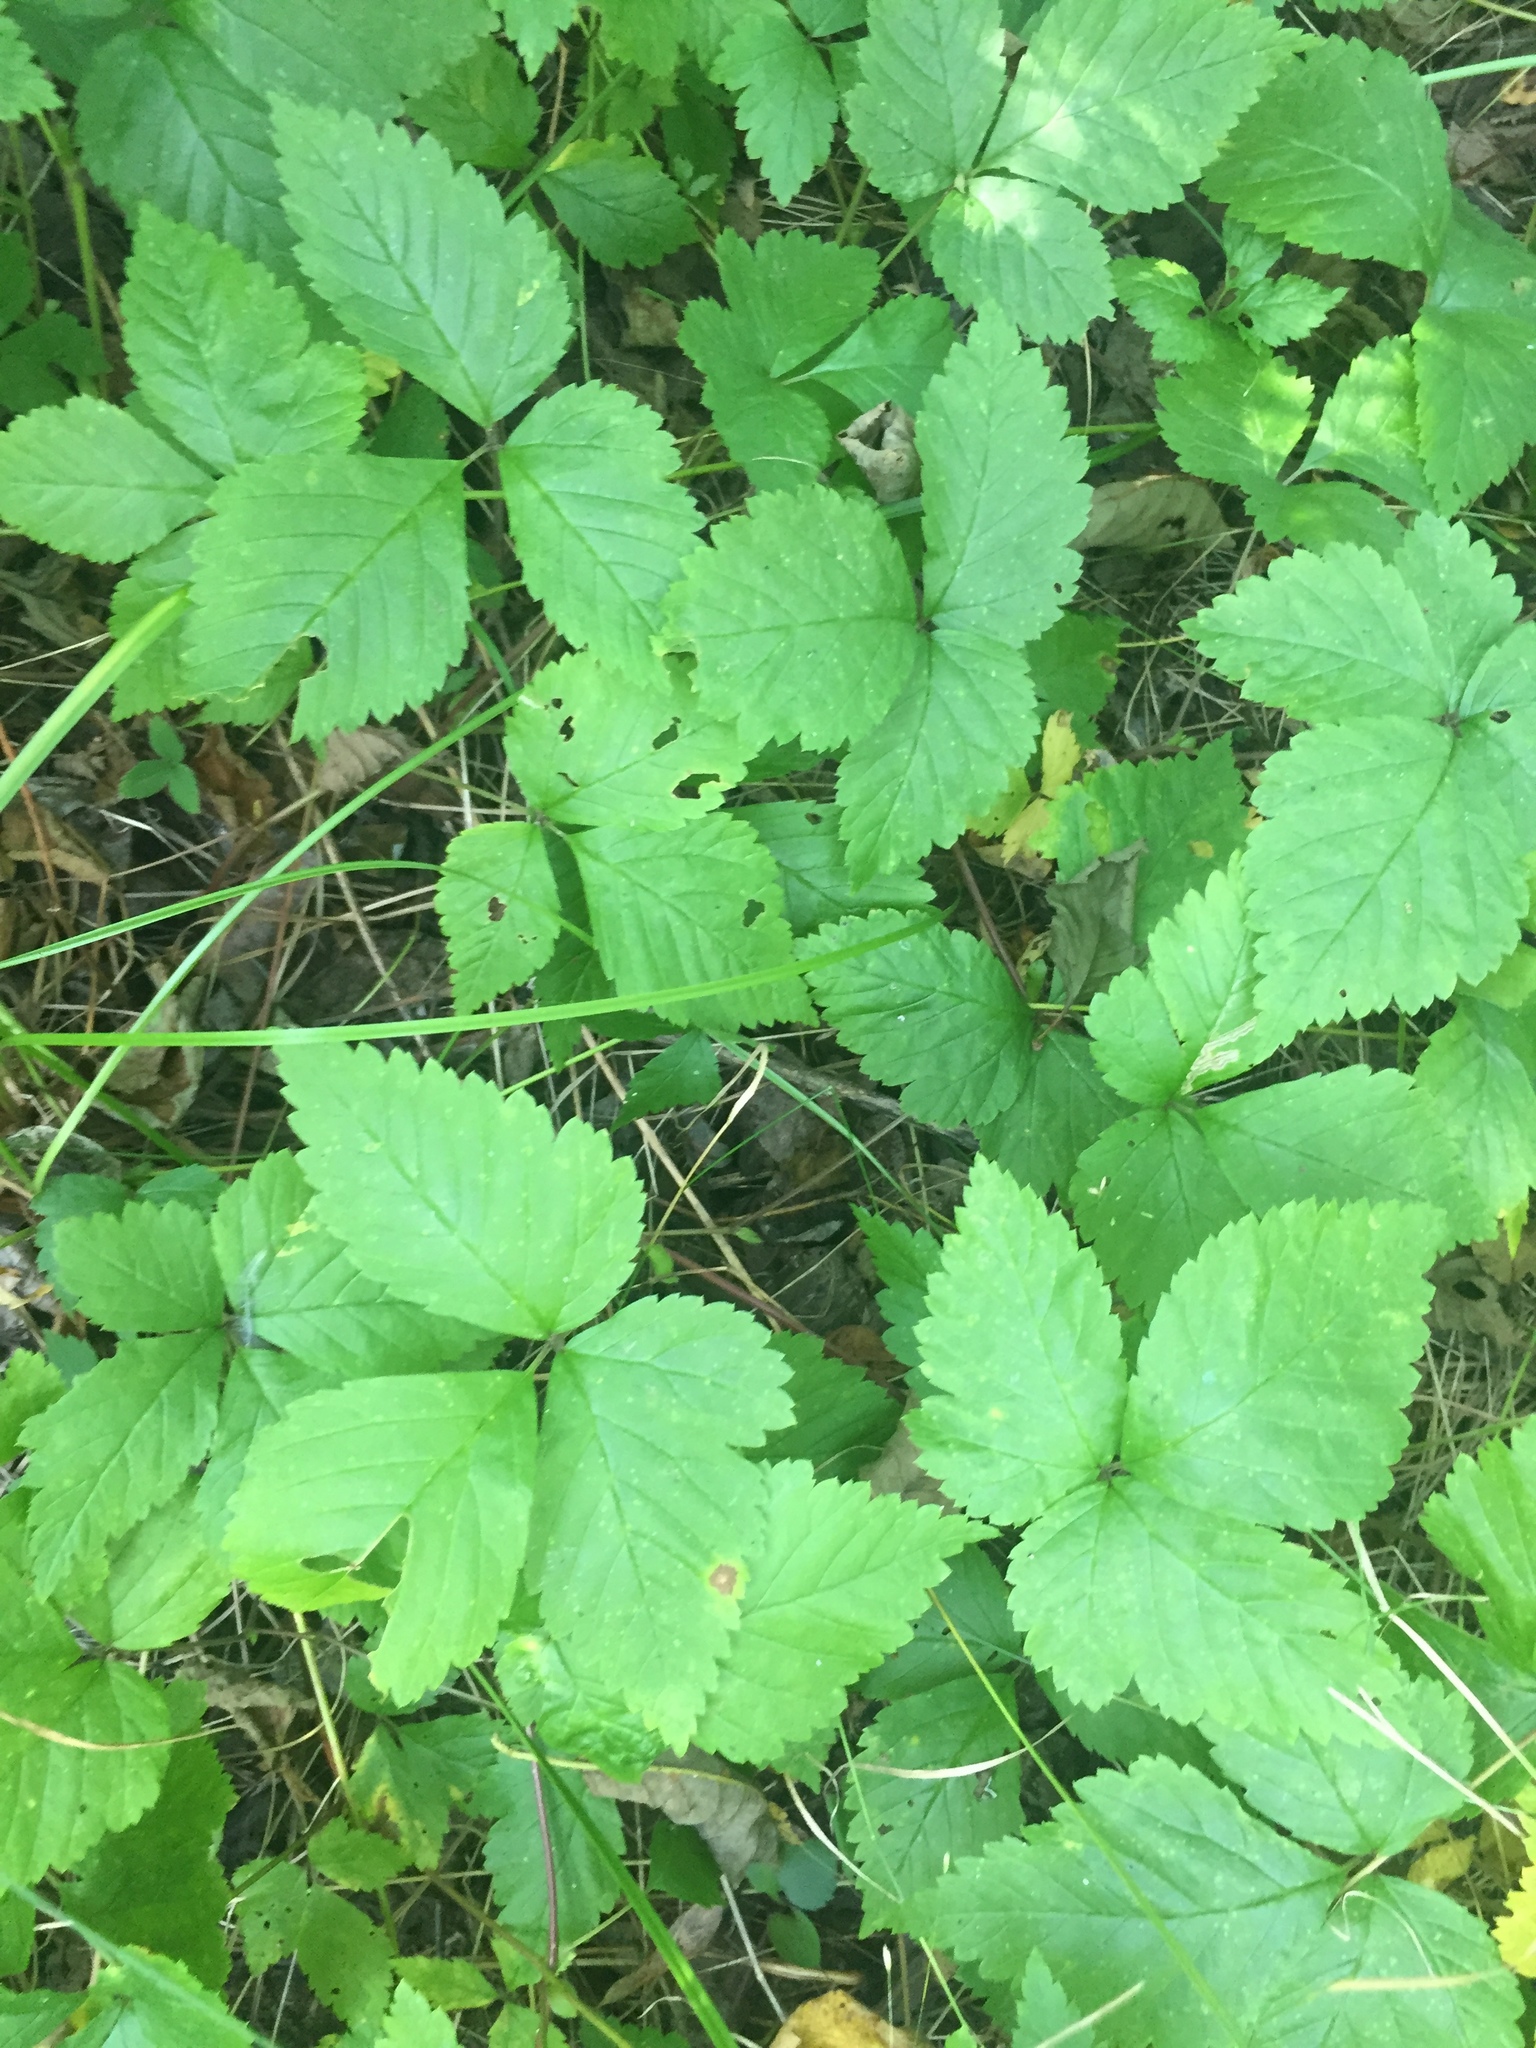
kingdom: Plantae
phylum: Tracheophyta
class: Magnoliopsida
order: Rosales
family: Rosaceae
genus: Rubus
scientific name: Rubus pubescens
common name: Dwarf raspberry
